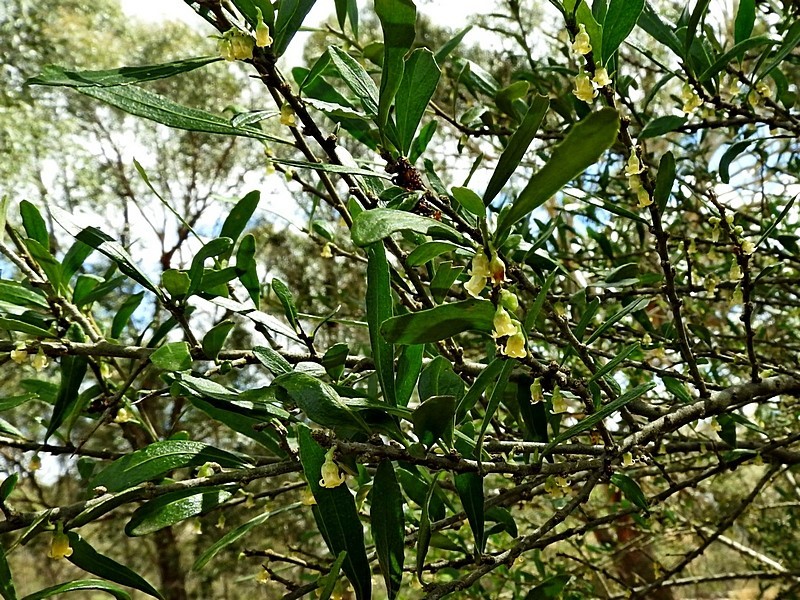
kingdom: Plantae
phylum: Tracheophyta
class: Magnoliopsida
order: Malpighiales
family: Violaceae
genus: Melicytus
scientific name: Melicytus dentatus
